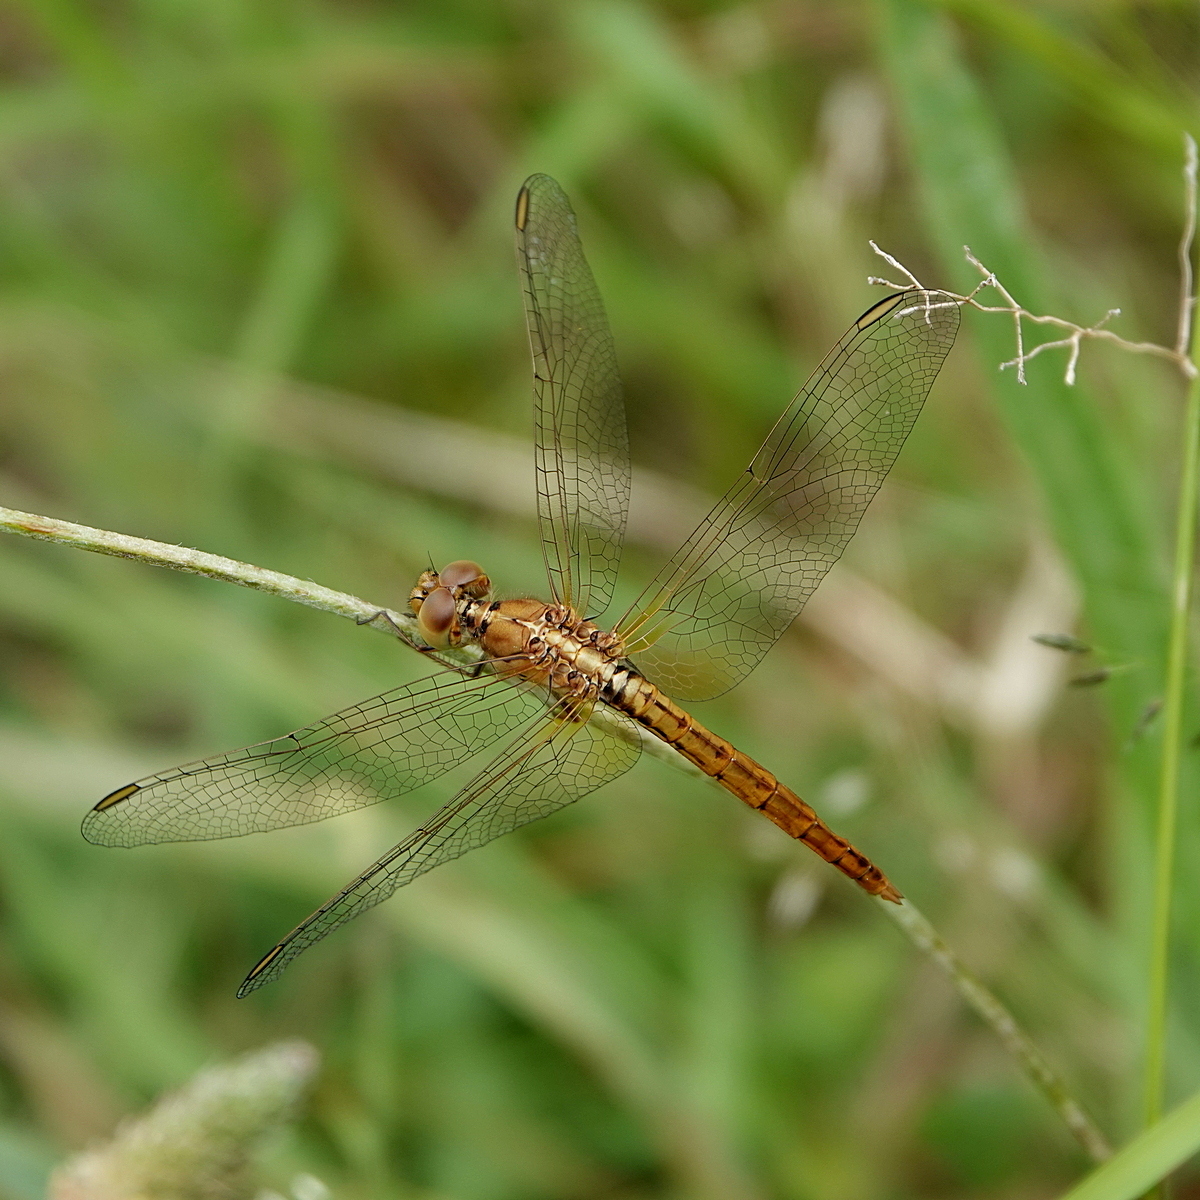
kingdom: Animalia
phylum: Arthropoda
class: Insecta
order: Odonata
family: Libellulidae
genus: Diplacodes
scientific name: Diplacodes haematodes
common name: Scarlet percher
